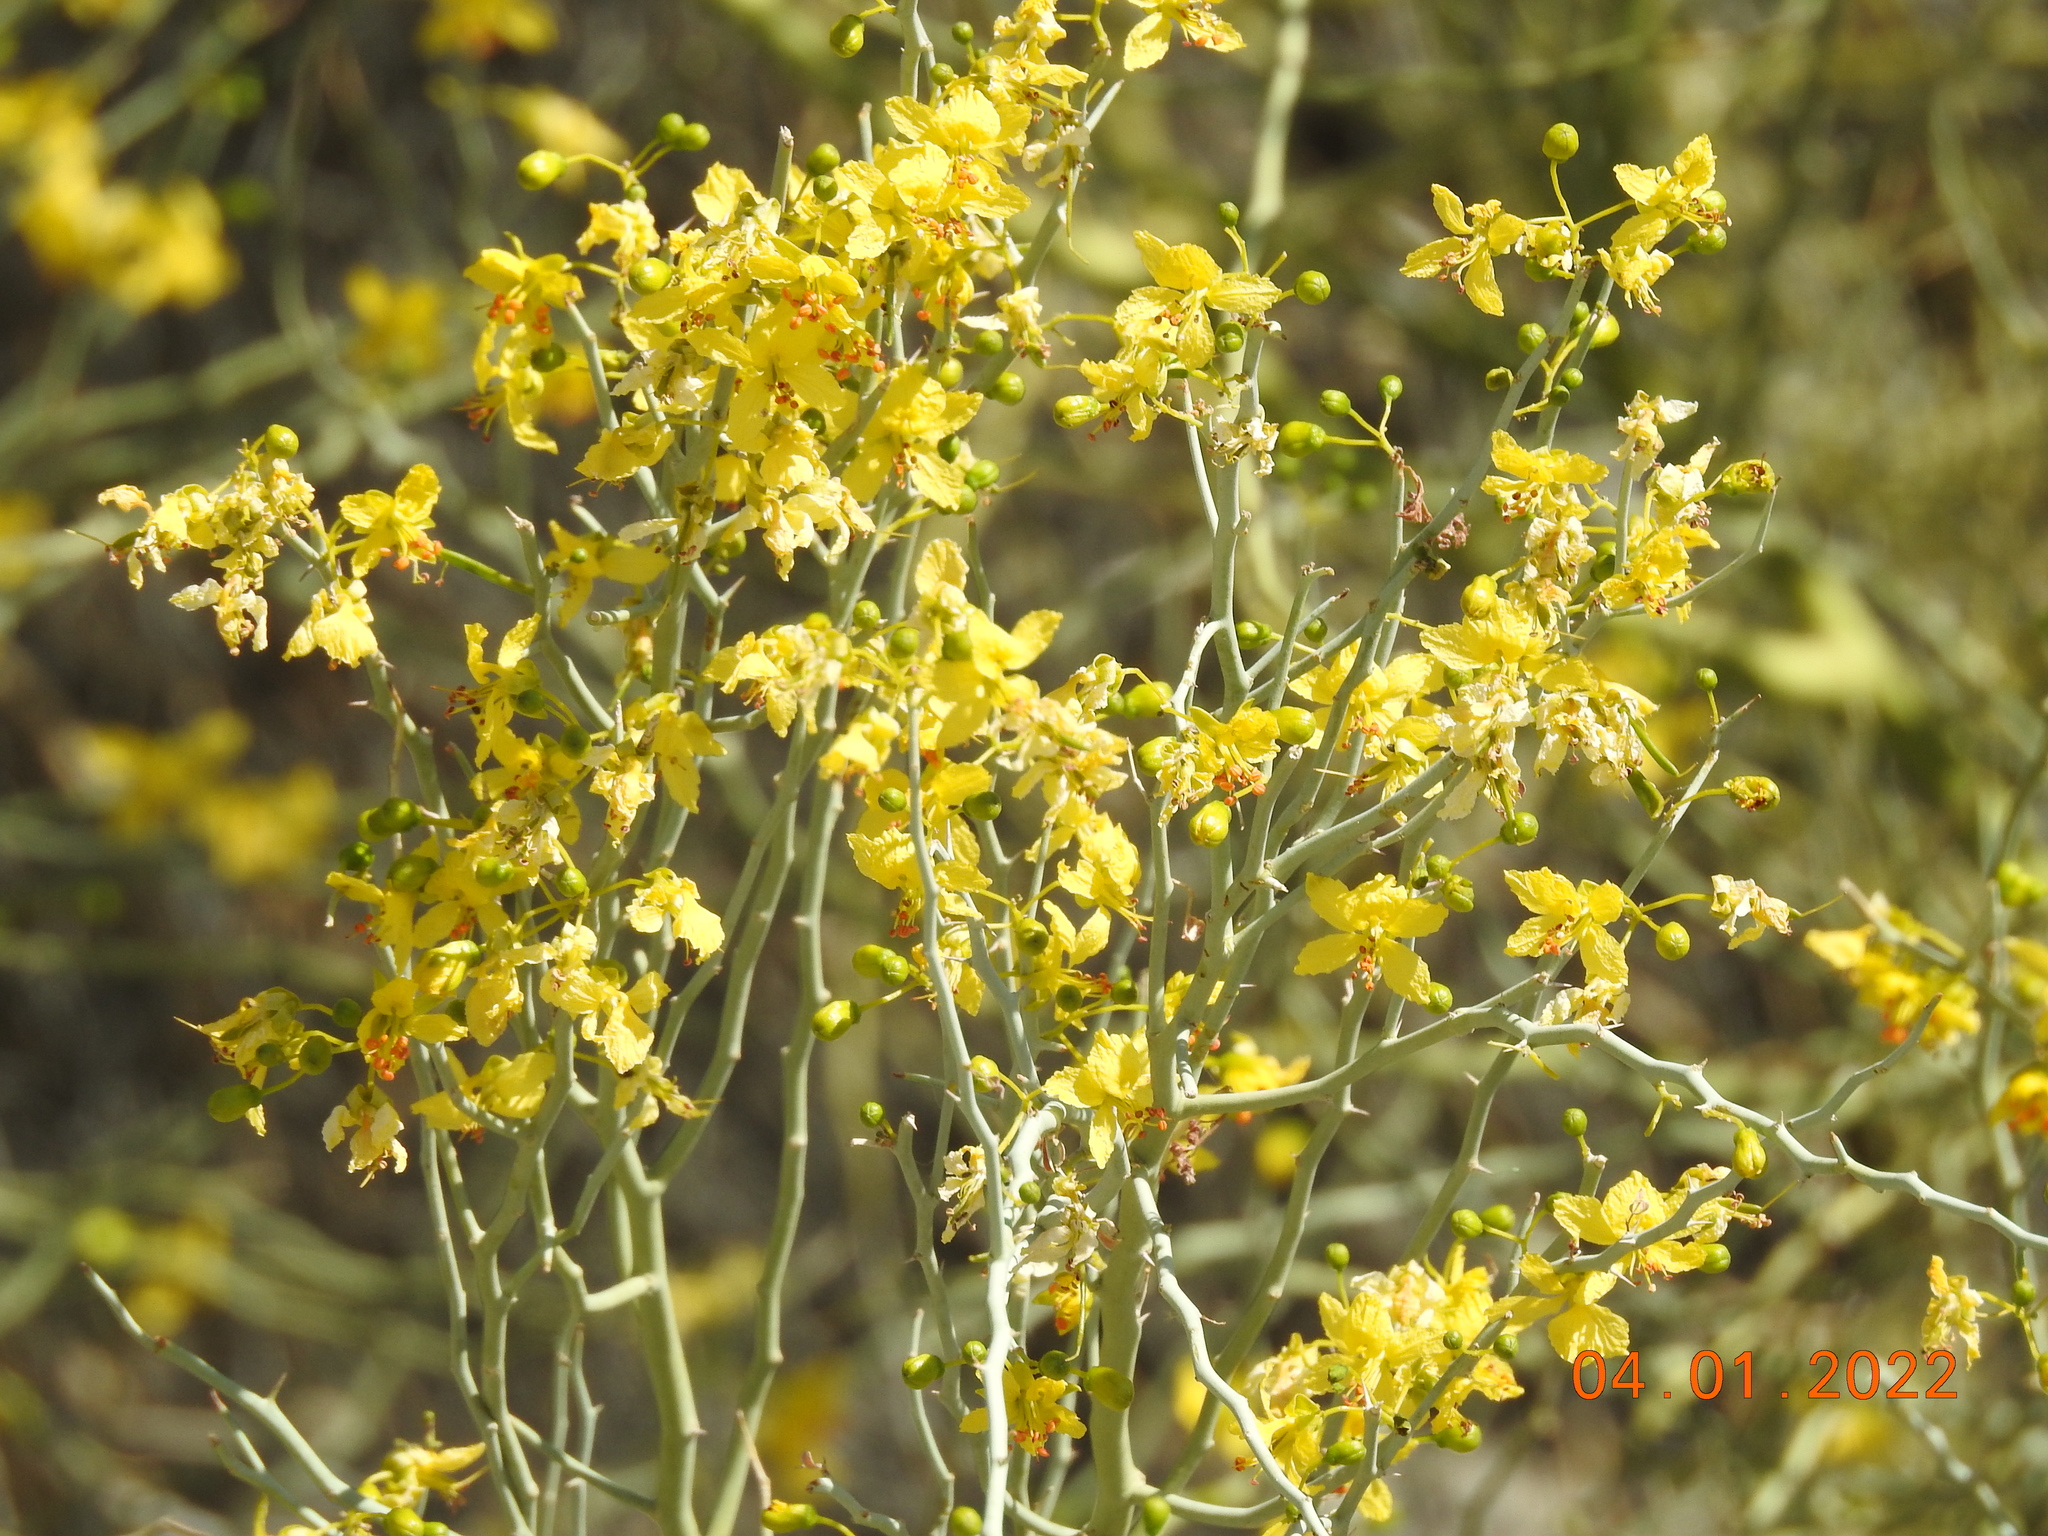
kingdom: Plantae
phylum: Tracheophyta
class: Magnoliopsida
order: Fabales
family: Fabaceae
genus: Parkinsonia
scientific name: Parkinsonia florida
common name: Blue paloverde
